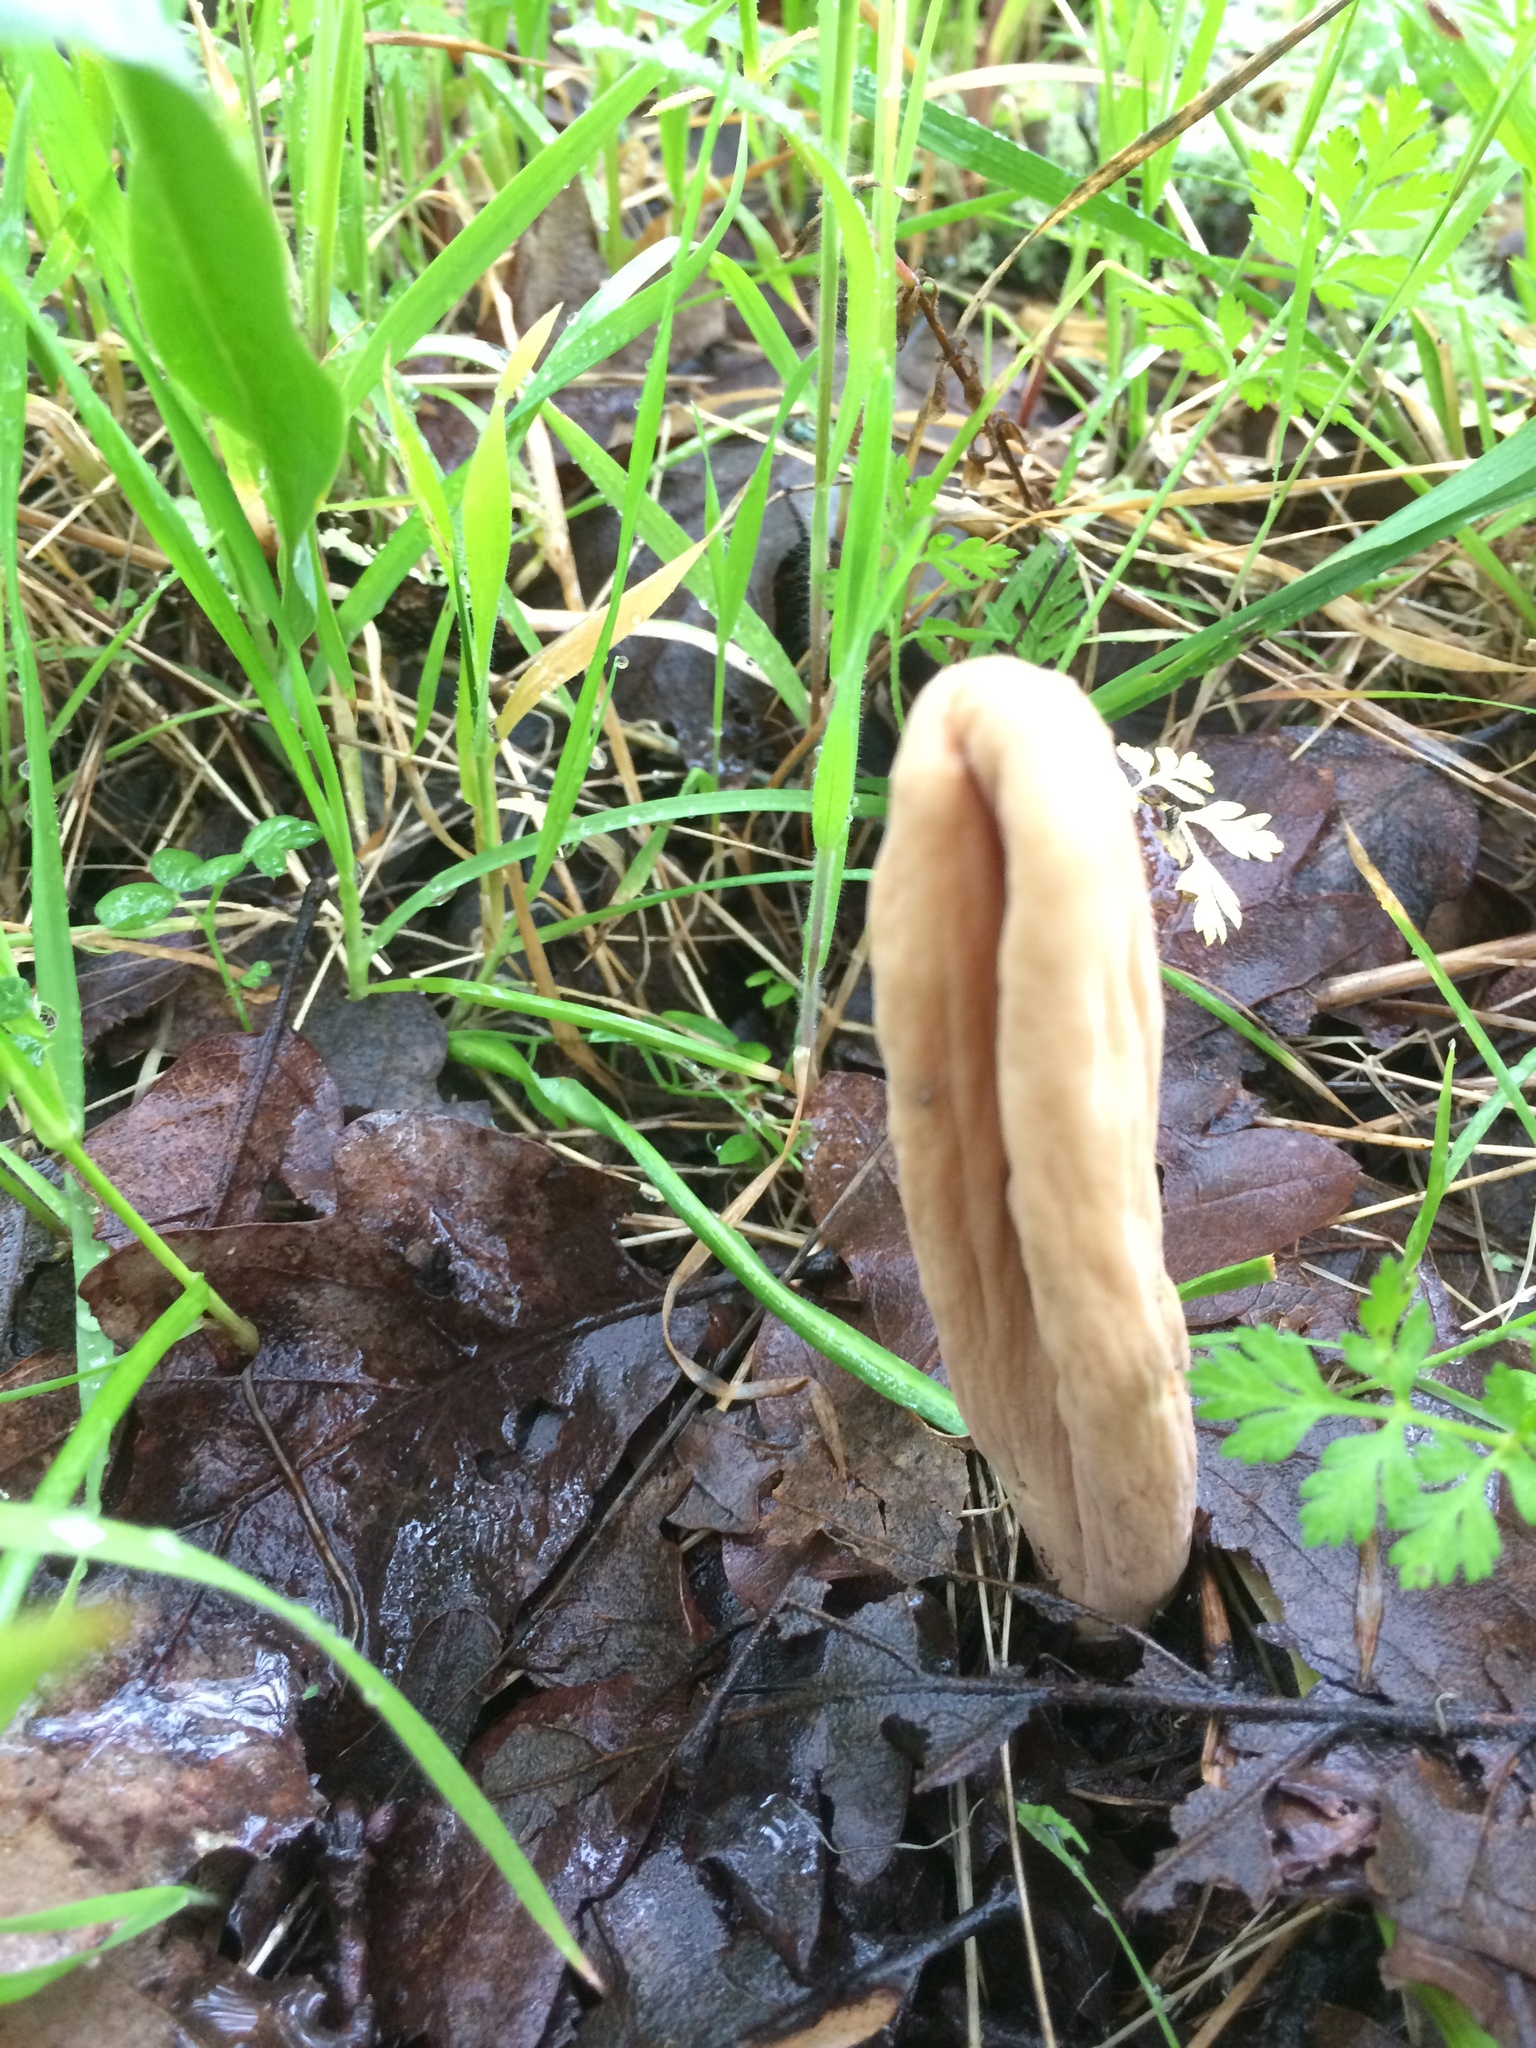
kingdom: Fungi
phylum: Basidiomycota
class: Agaricomycetes
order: Gomphales
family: Clavariadelphaceae
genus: Clavariadelphus
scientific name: Clavariadelphus occidentalis
